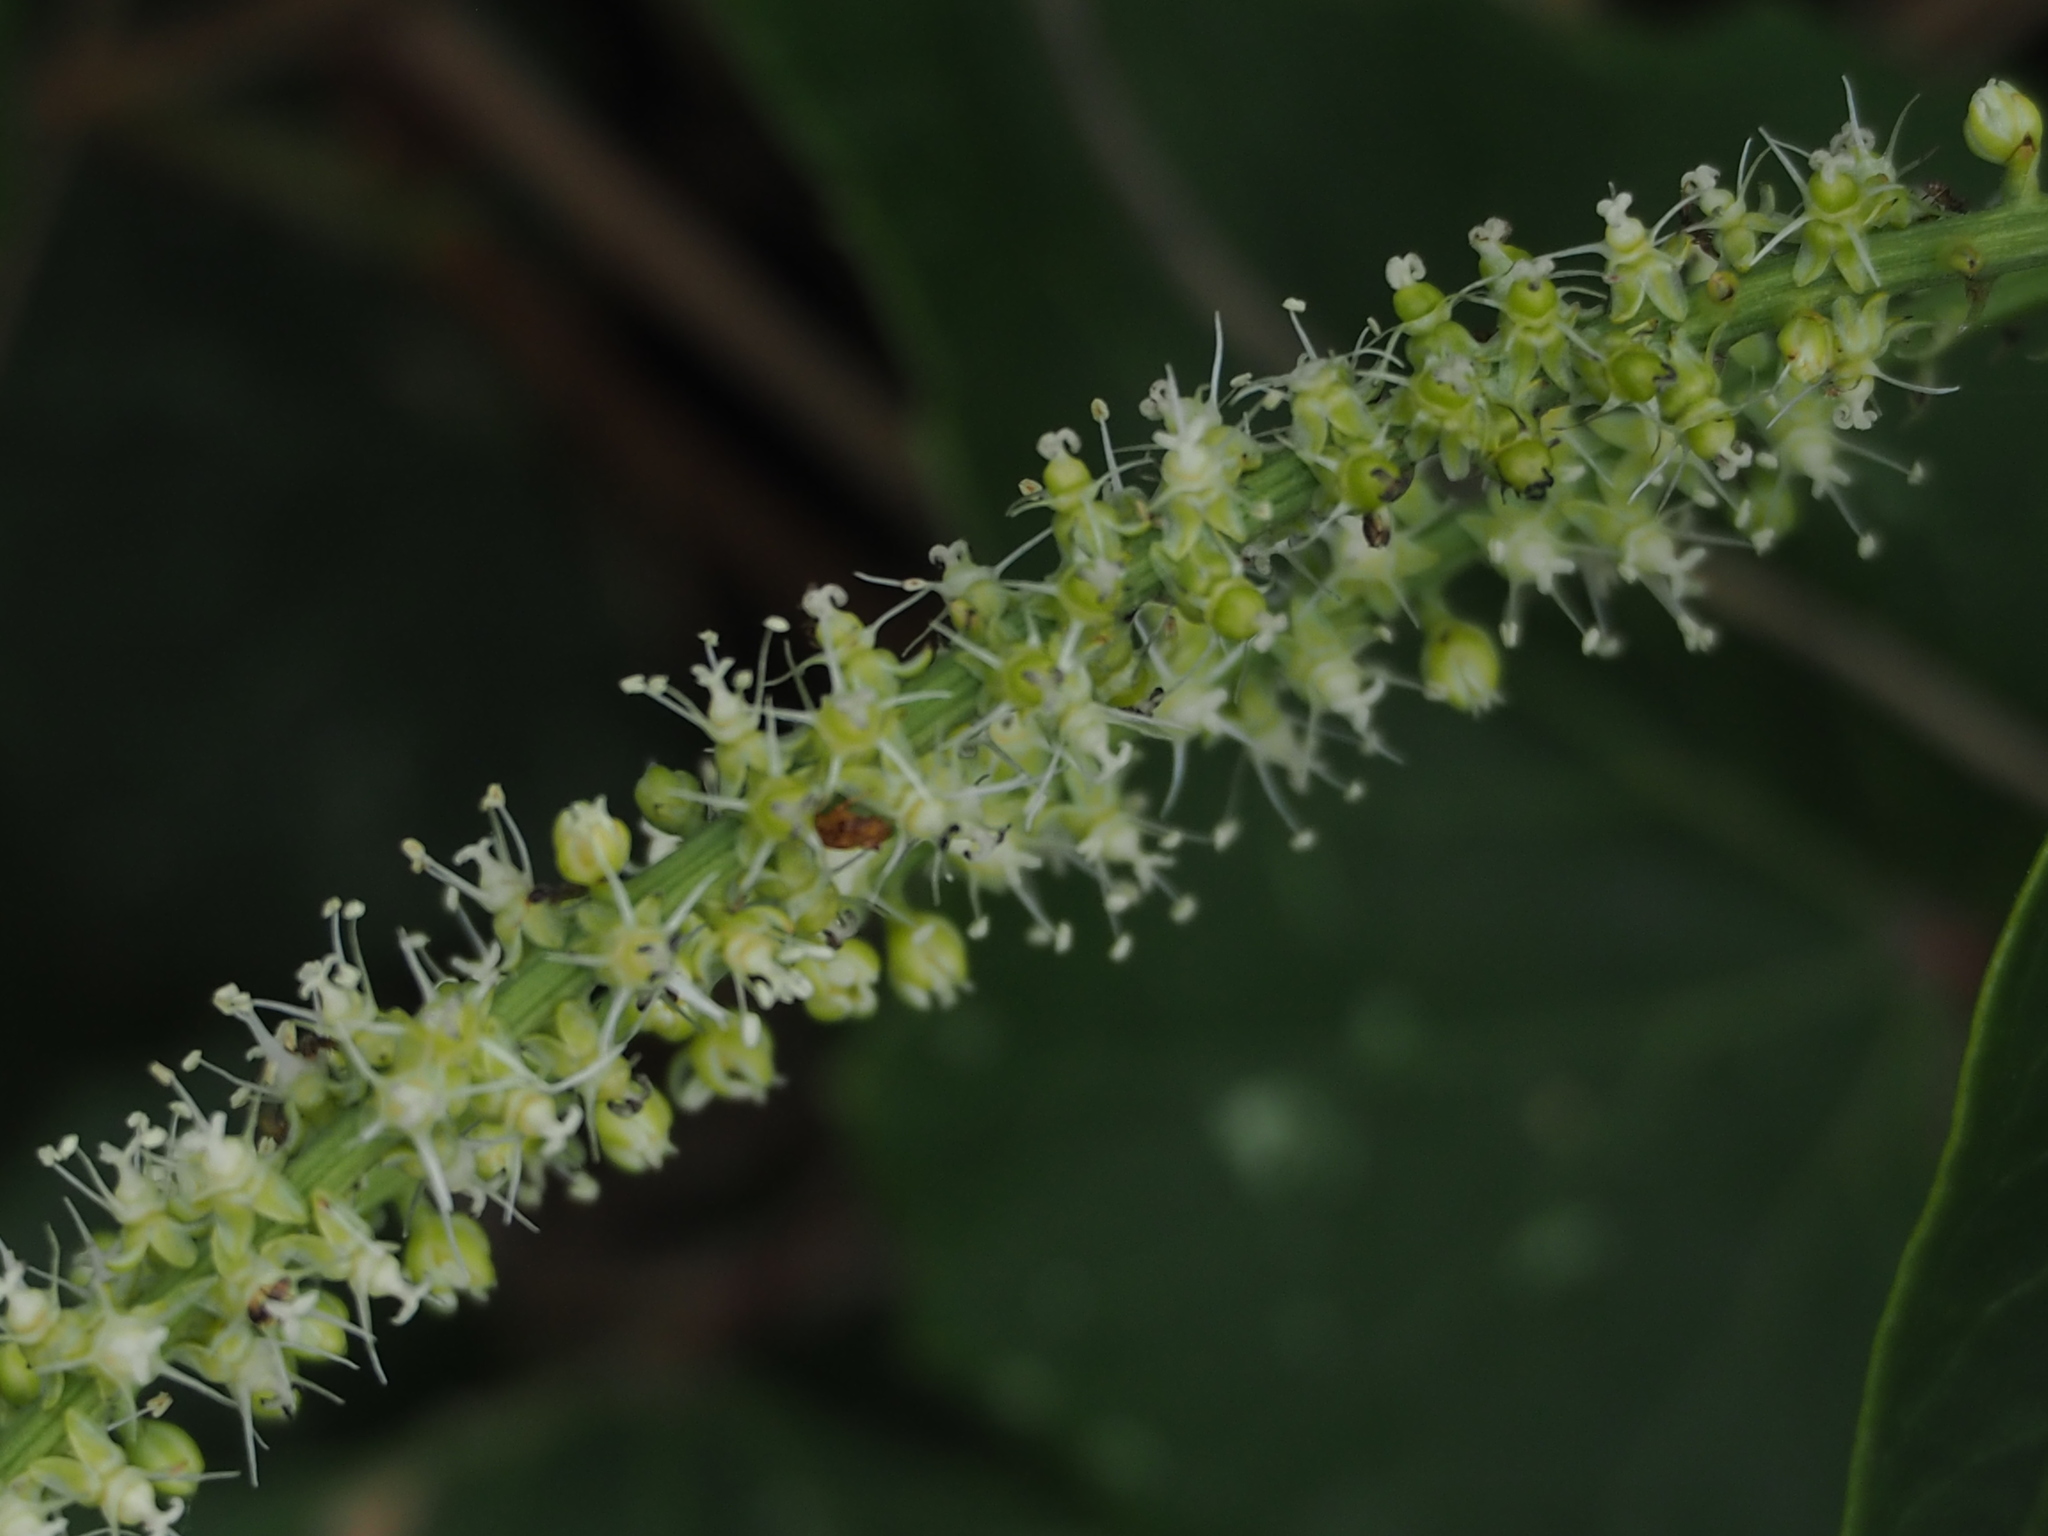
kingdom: Plantae
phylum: Tracheophyta
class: Magnoliopsida
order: Caryophyllales
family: Amaranthaceae
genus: Deeringia
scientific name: Deeringia amaranthoides
